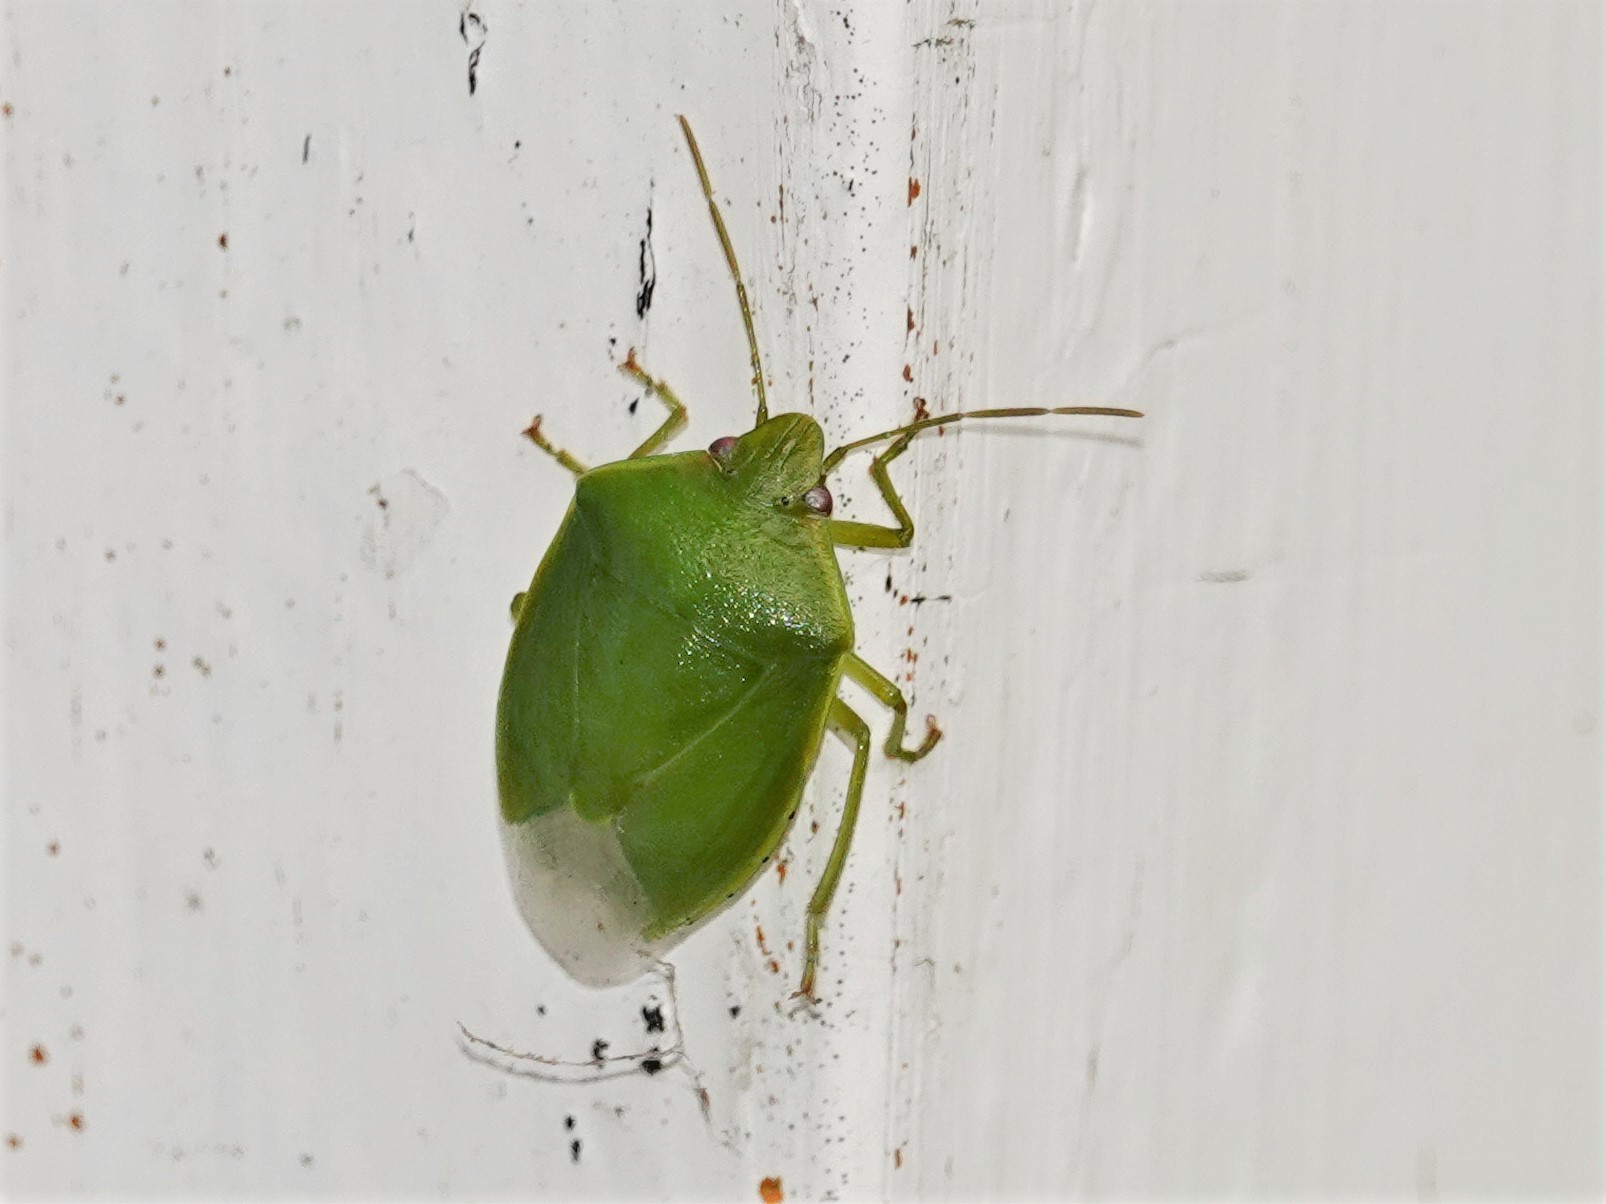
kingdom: Animalia
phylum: Arthropoda
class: Insecta
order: Hemiptera
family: Pentatomidae
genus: Glaucias
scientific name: Glaucias amyota
